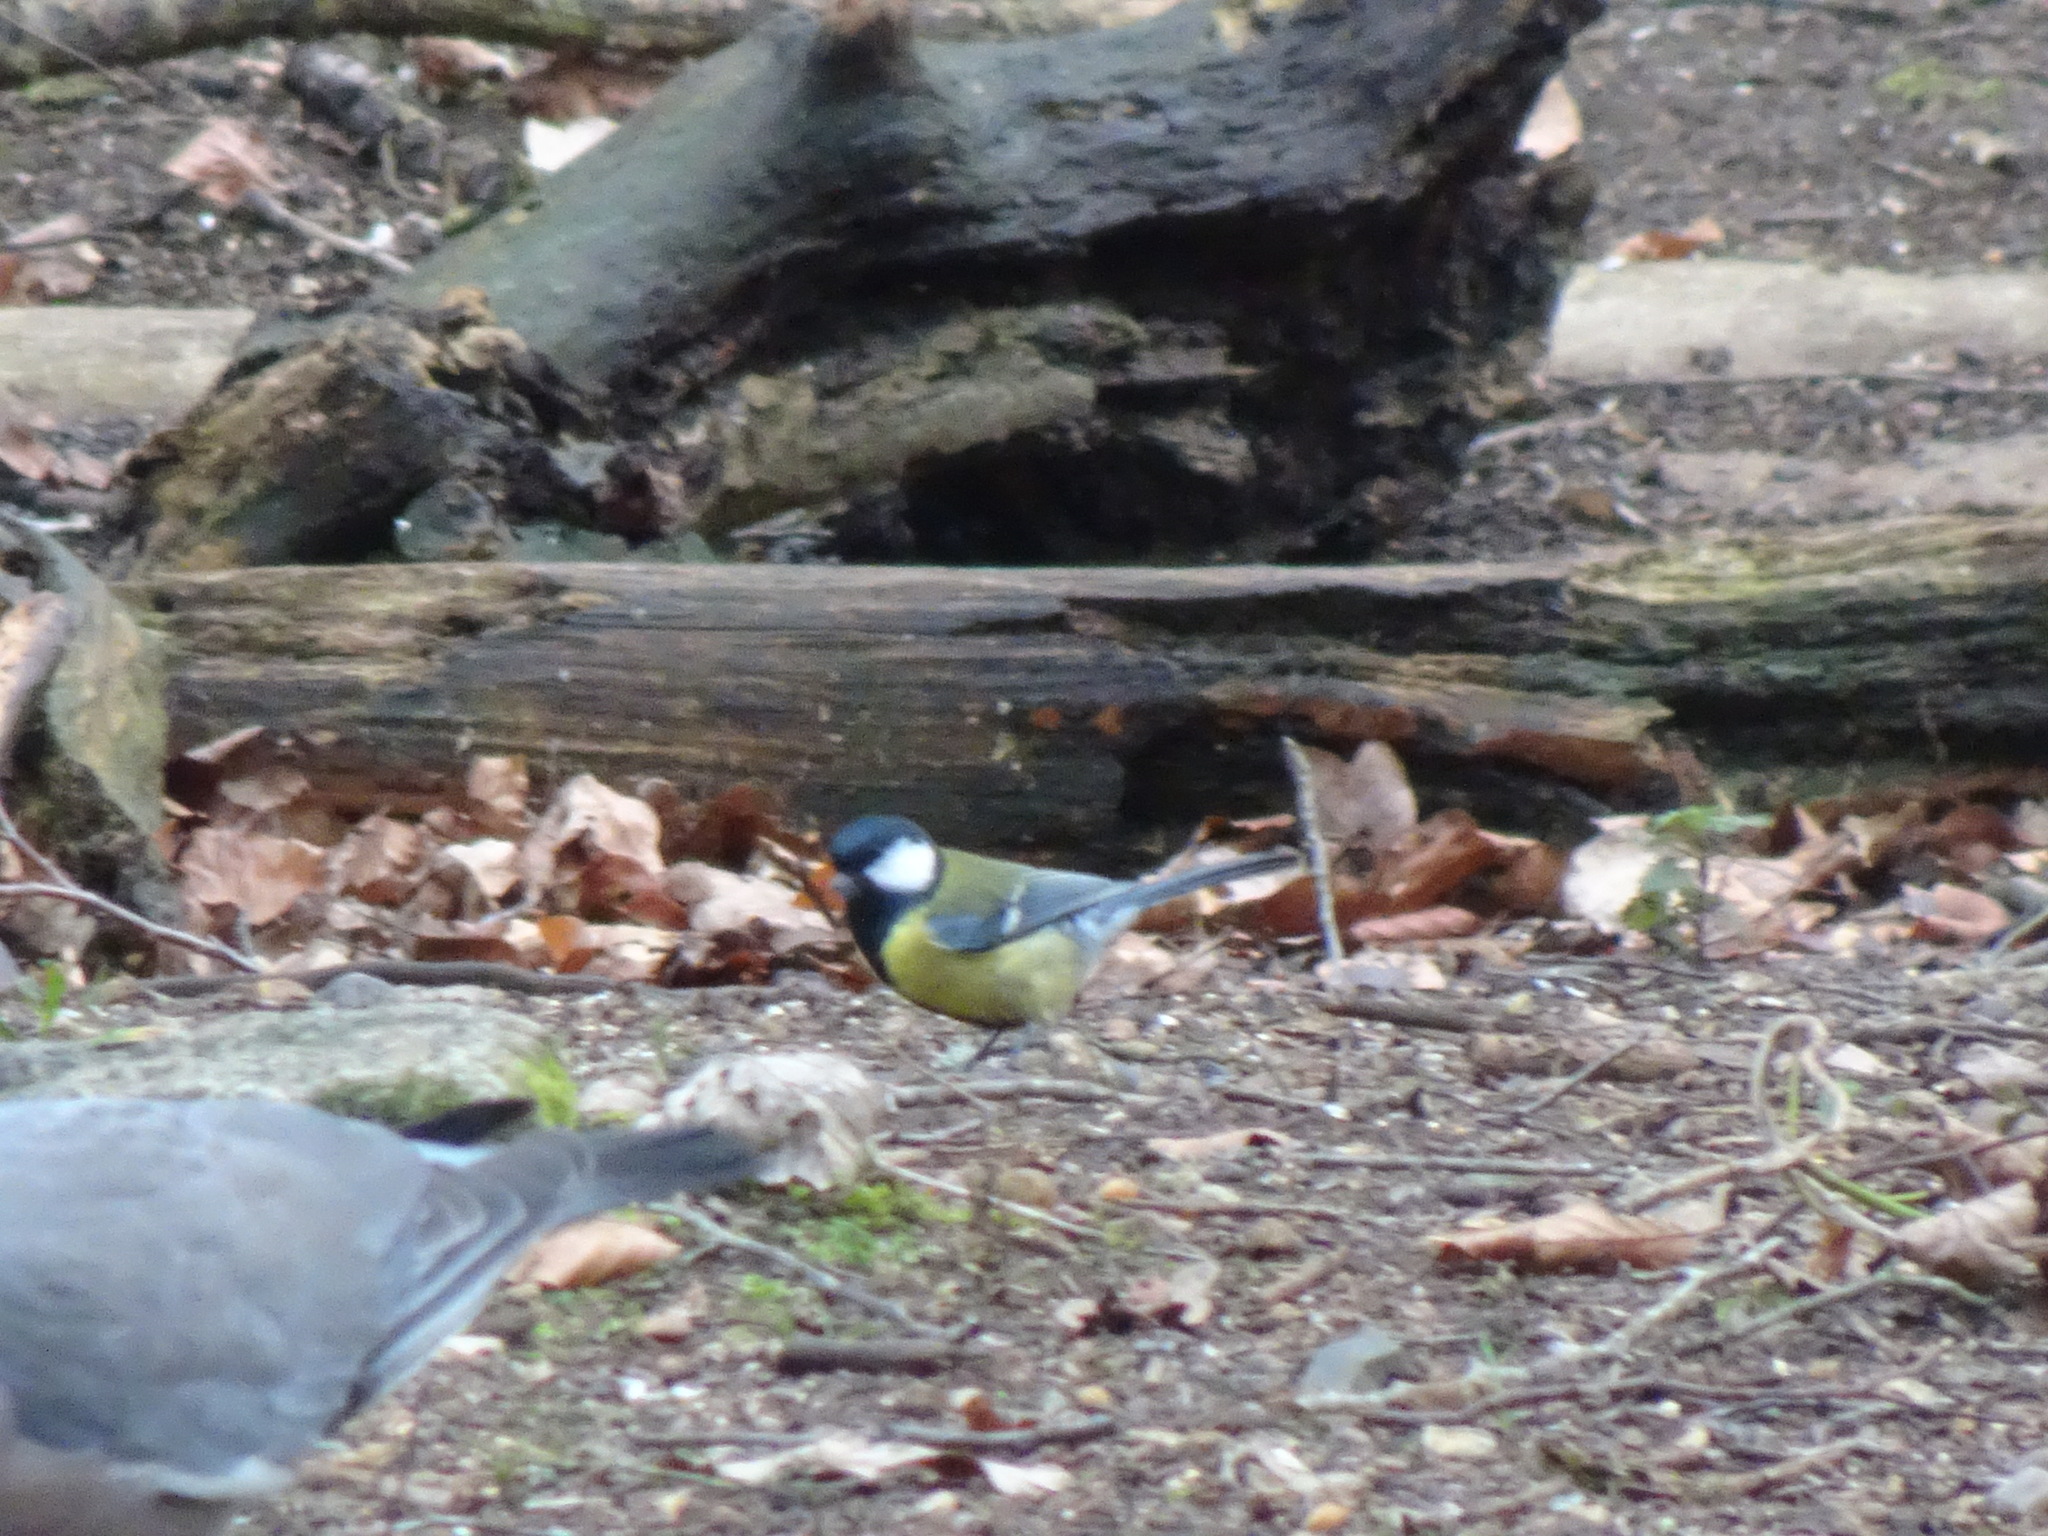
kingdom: Animalia
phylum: Chordata
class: Aves
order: Passeriformes
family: Paridae
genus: Parus
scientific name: Parus major
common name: Great tit
